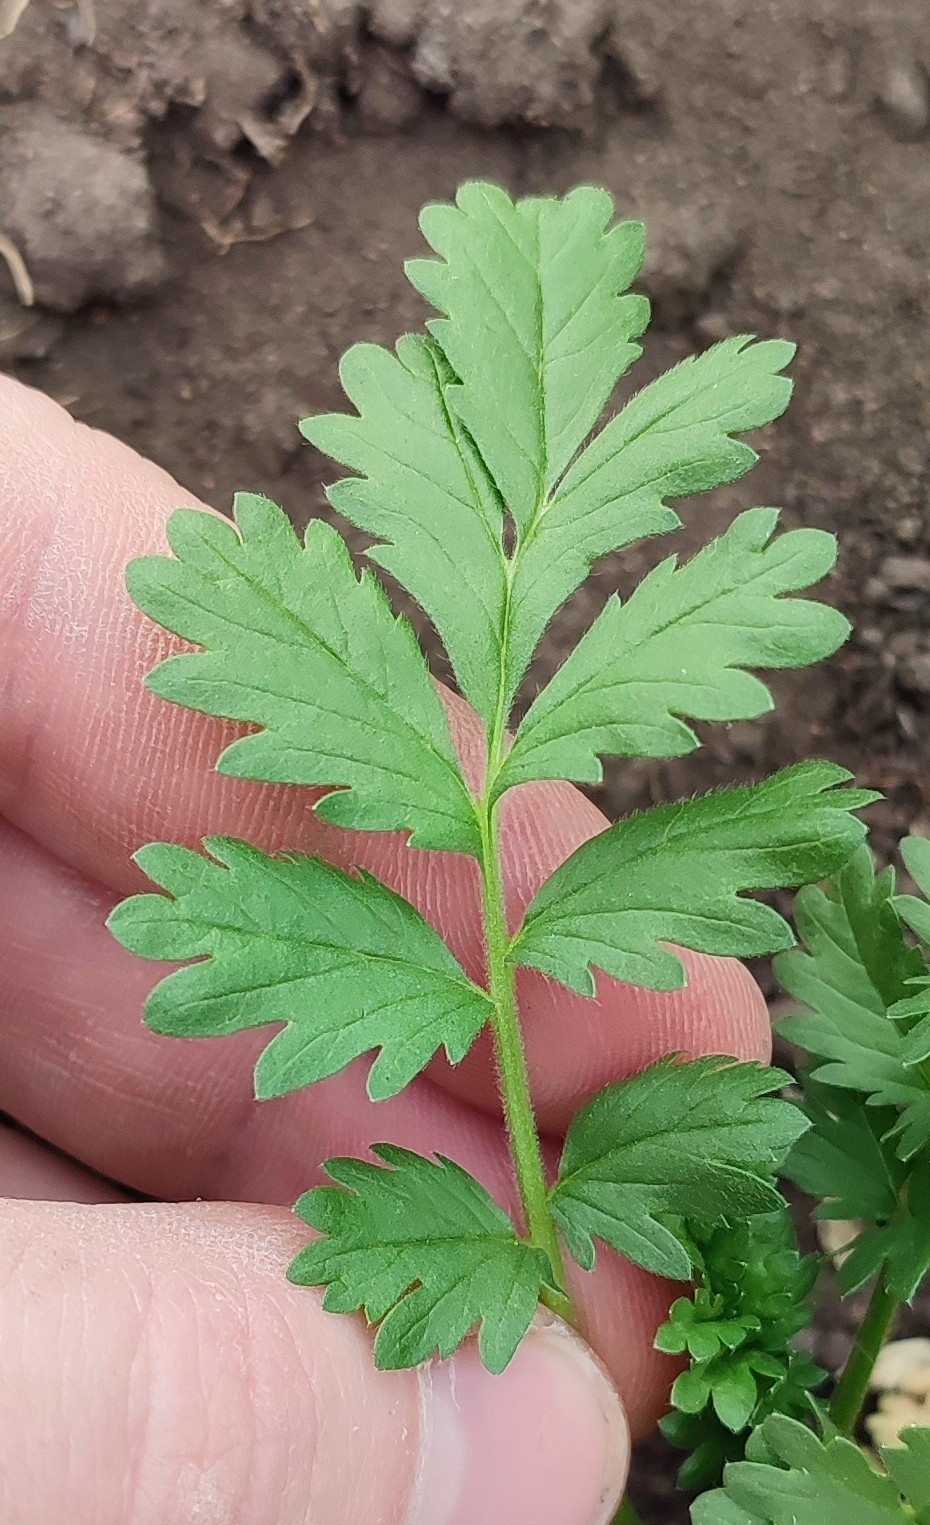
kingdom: Plantae
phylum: Tracheophyta
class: Magnoliopsida
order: Rosales
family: Rosaceae
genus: Potentilla
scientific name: Potentilla supina
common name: Prostrate cinquefoil
